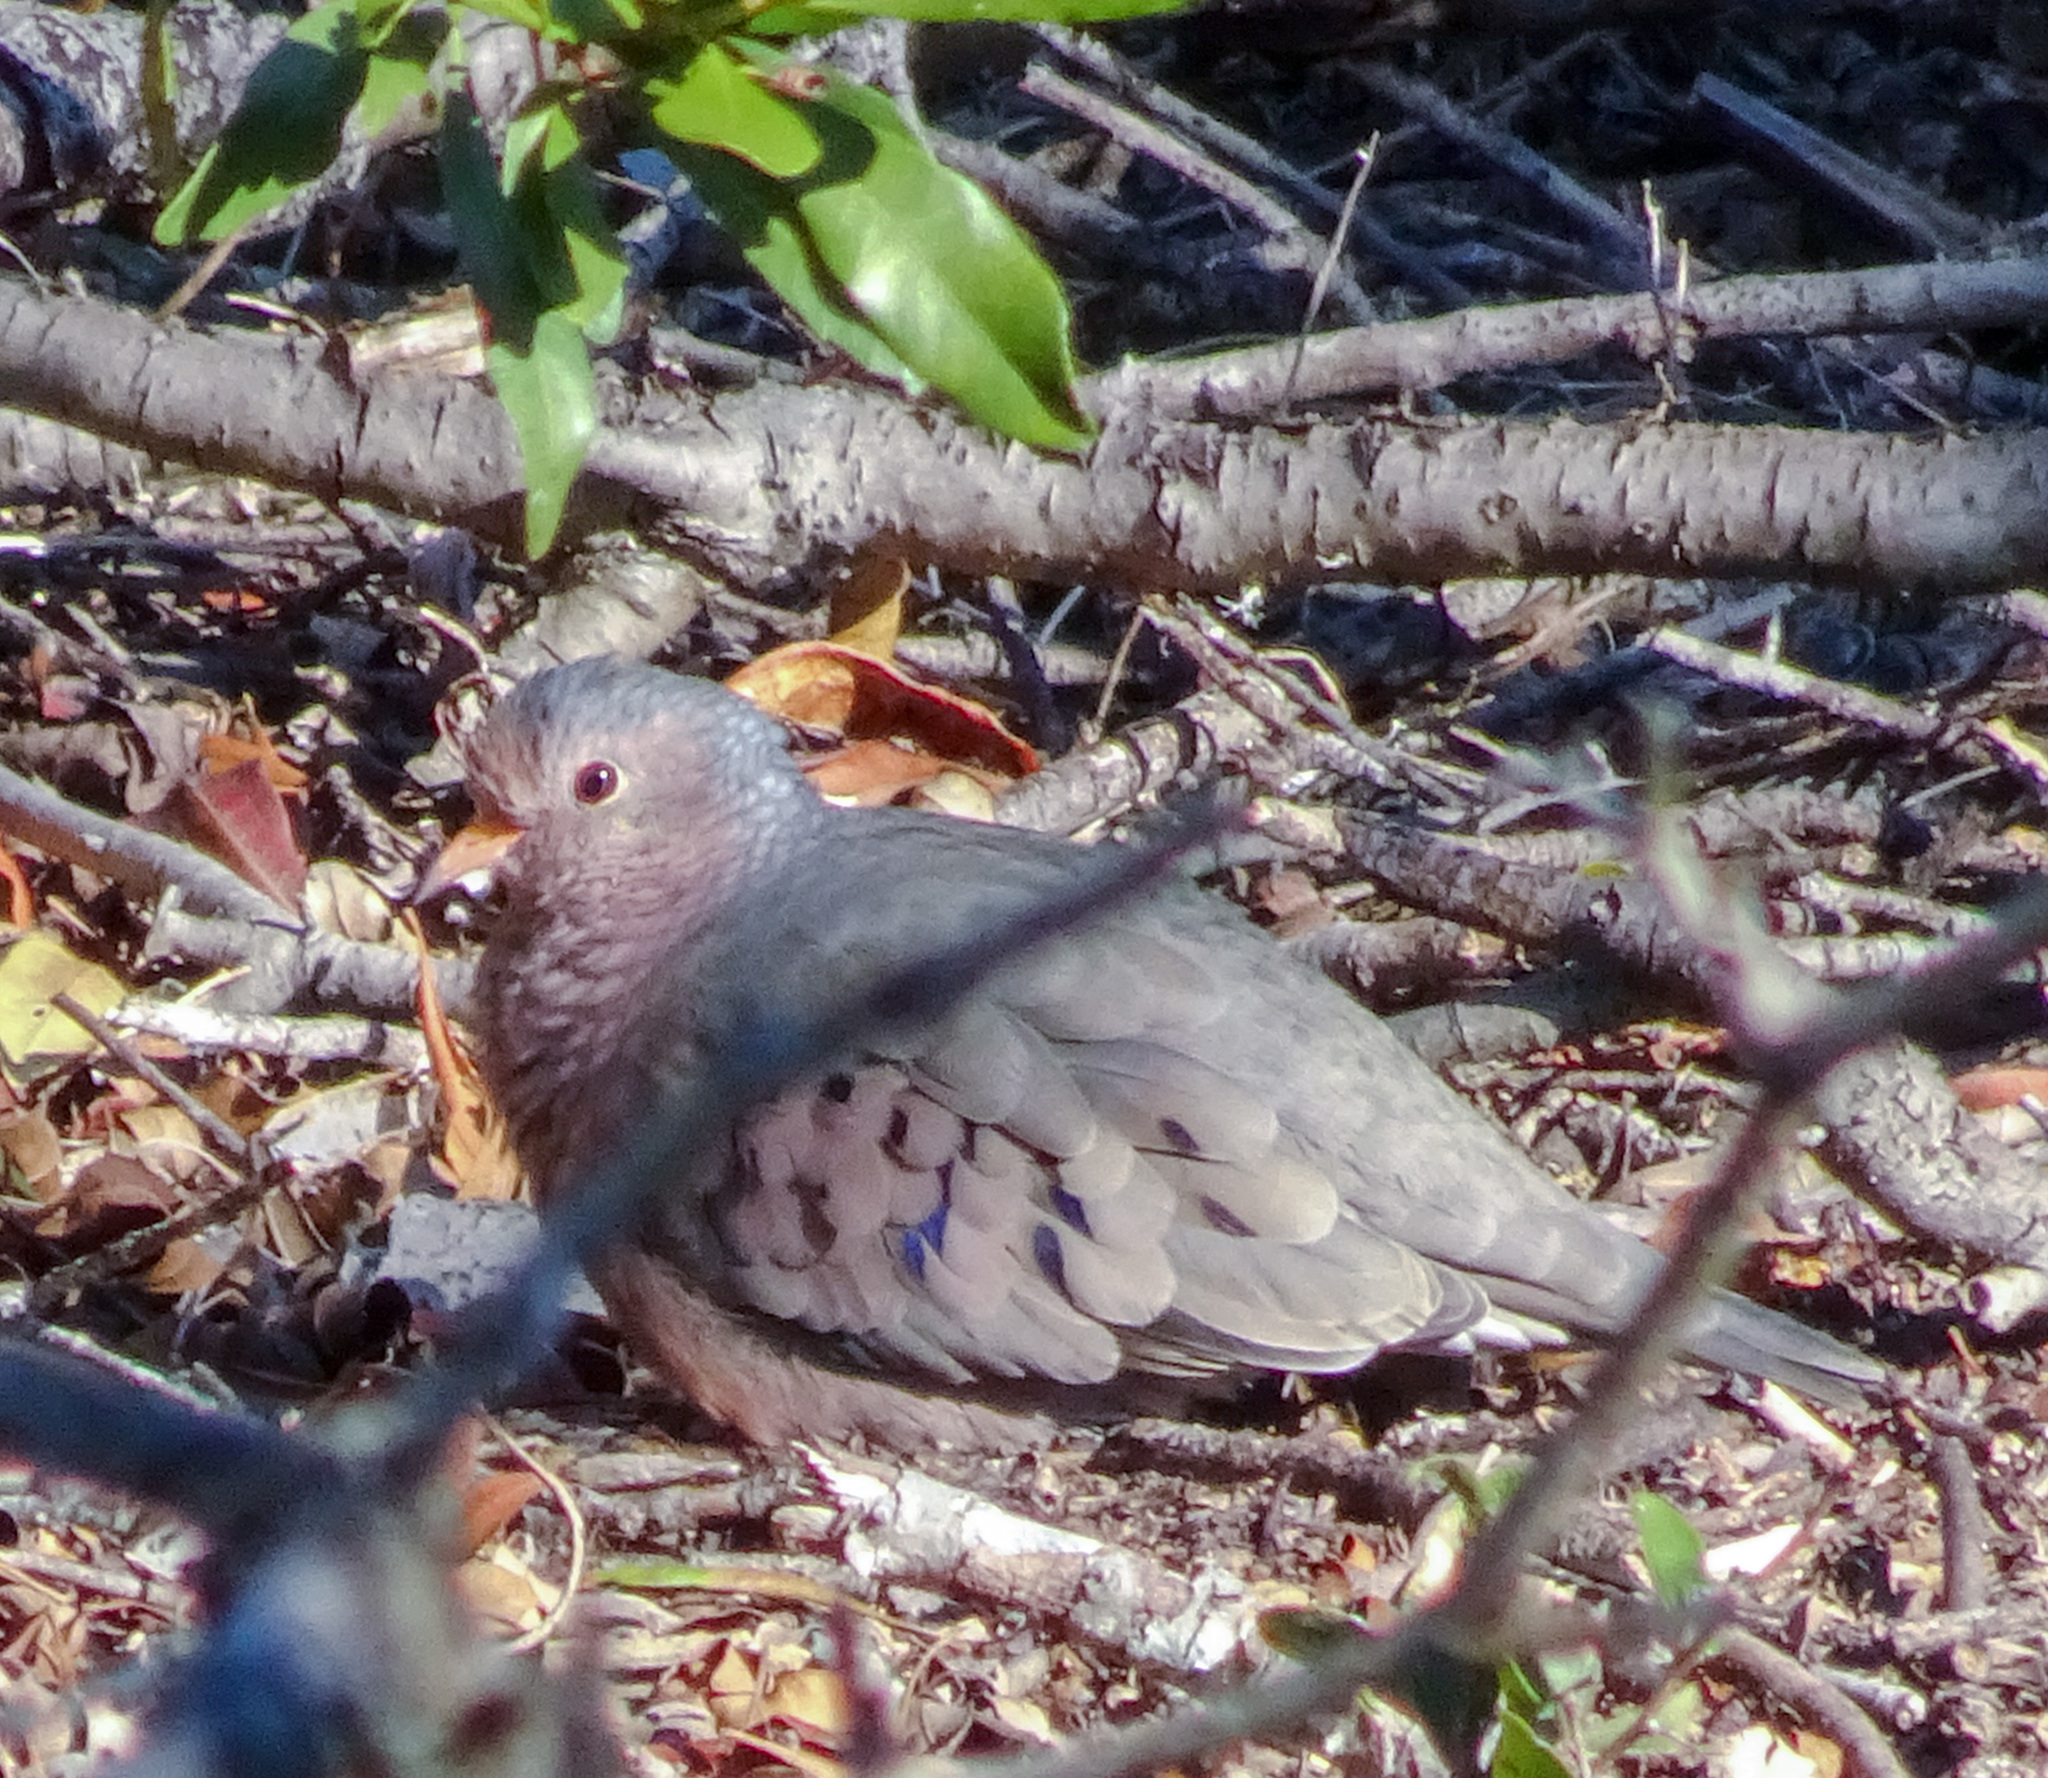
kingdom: Animalia
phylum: Chordata
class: Aves
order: Columbiformes
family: Columbidae
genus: Columbina
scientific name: Columbina passerina
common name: Common ground-dove
